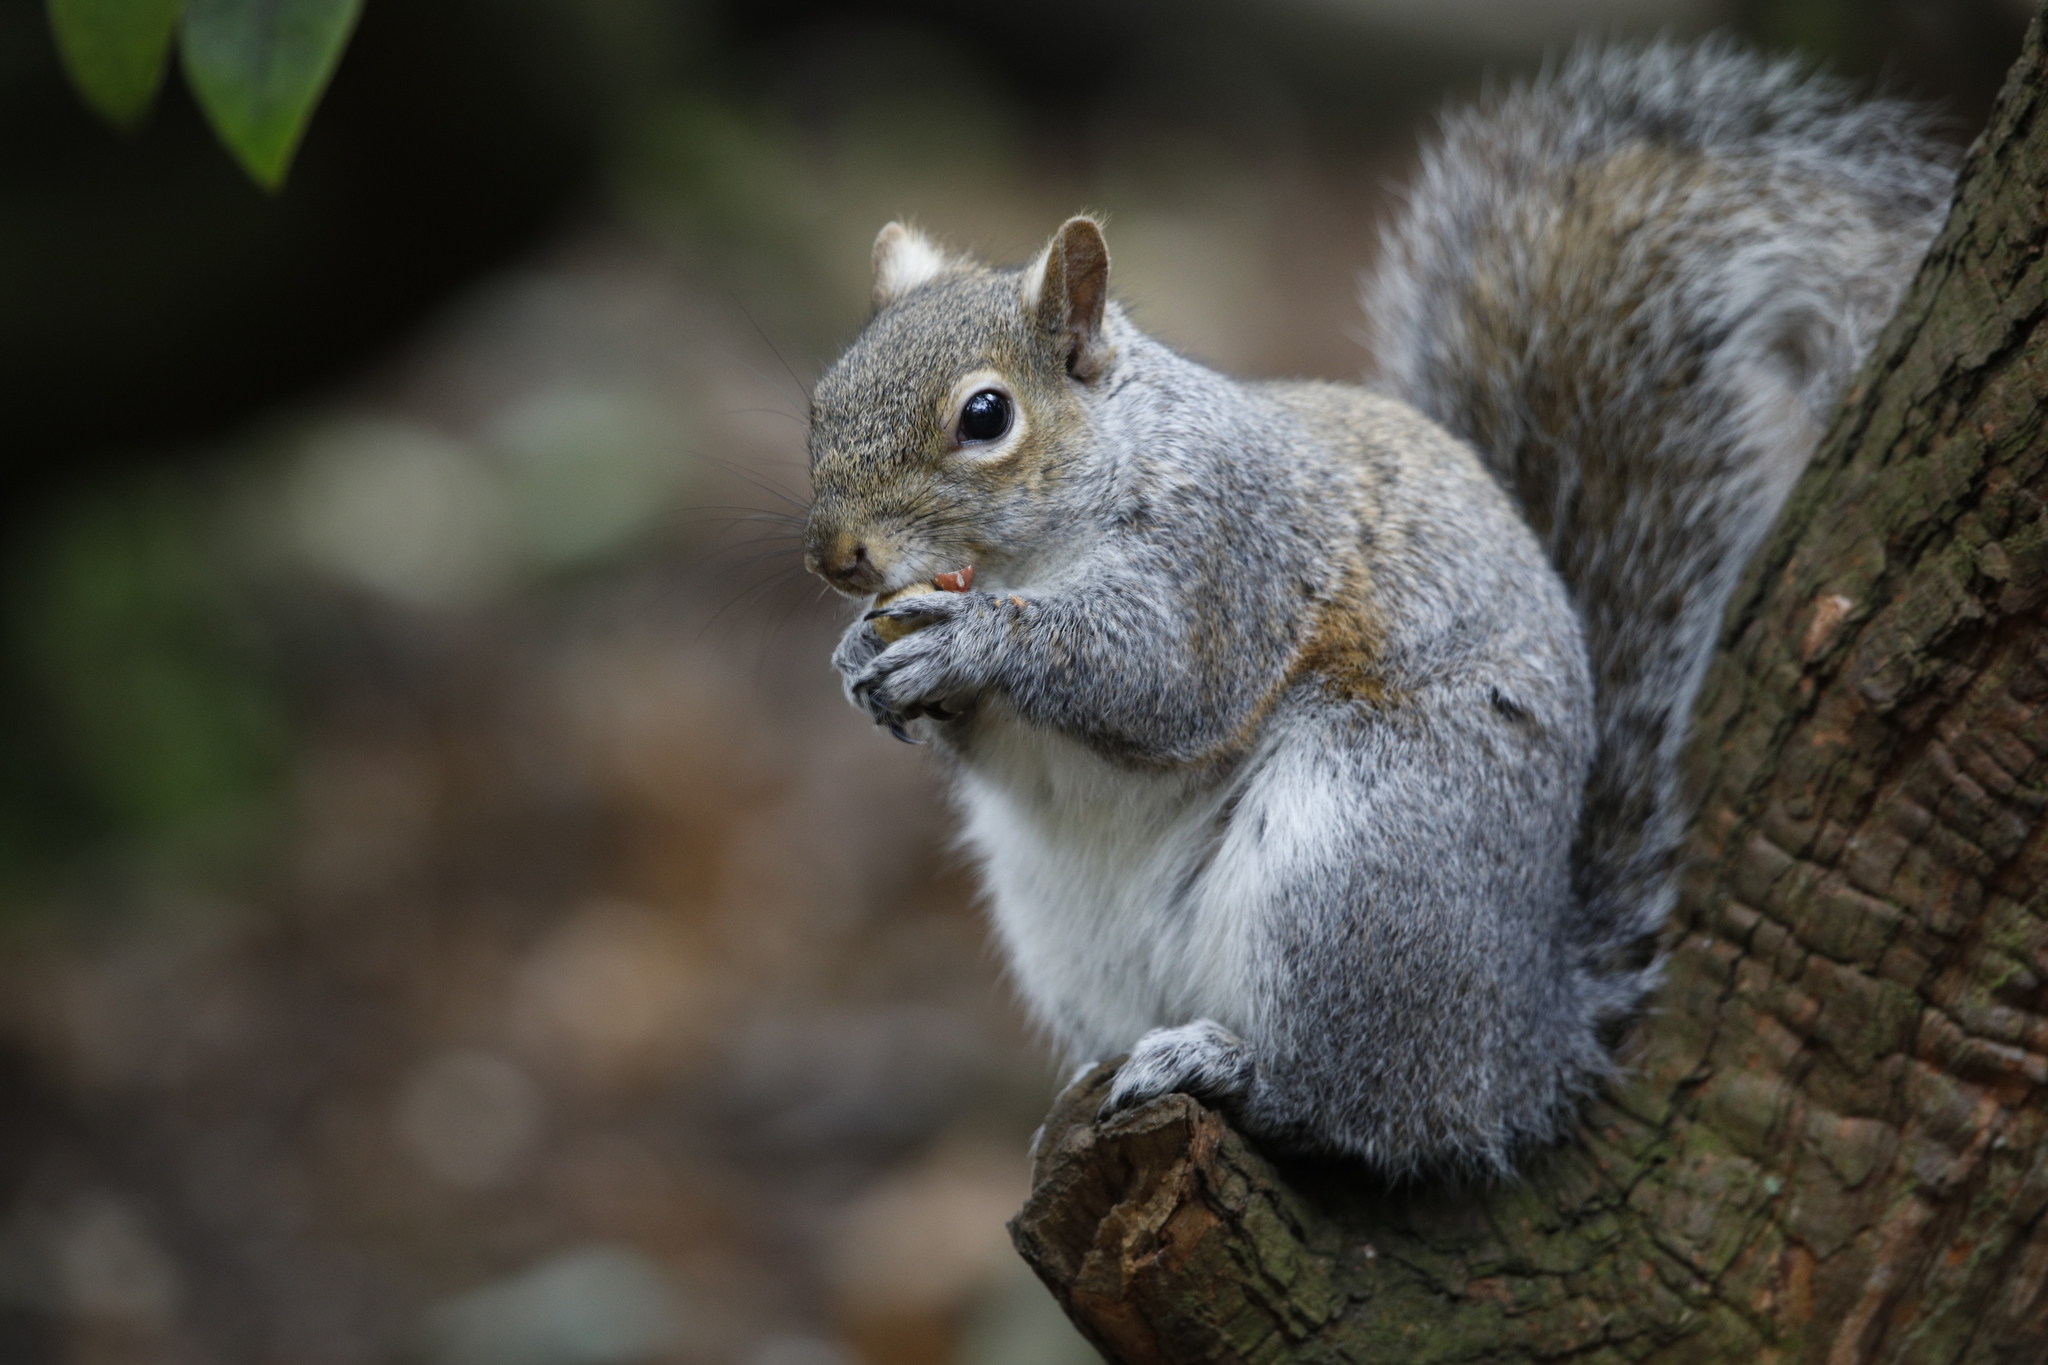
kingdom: Animalia
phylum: Chordata
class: Mammalia
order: Rodentia
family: Sciuridae
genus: Sciurus
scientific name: Sciurus carolinensis
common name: Eastern gray squirrel
